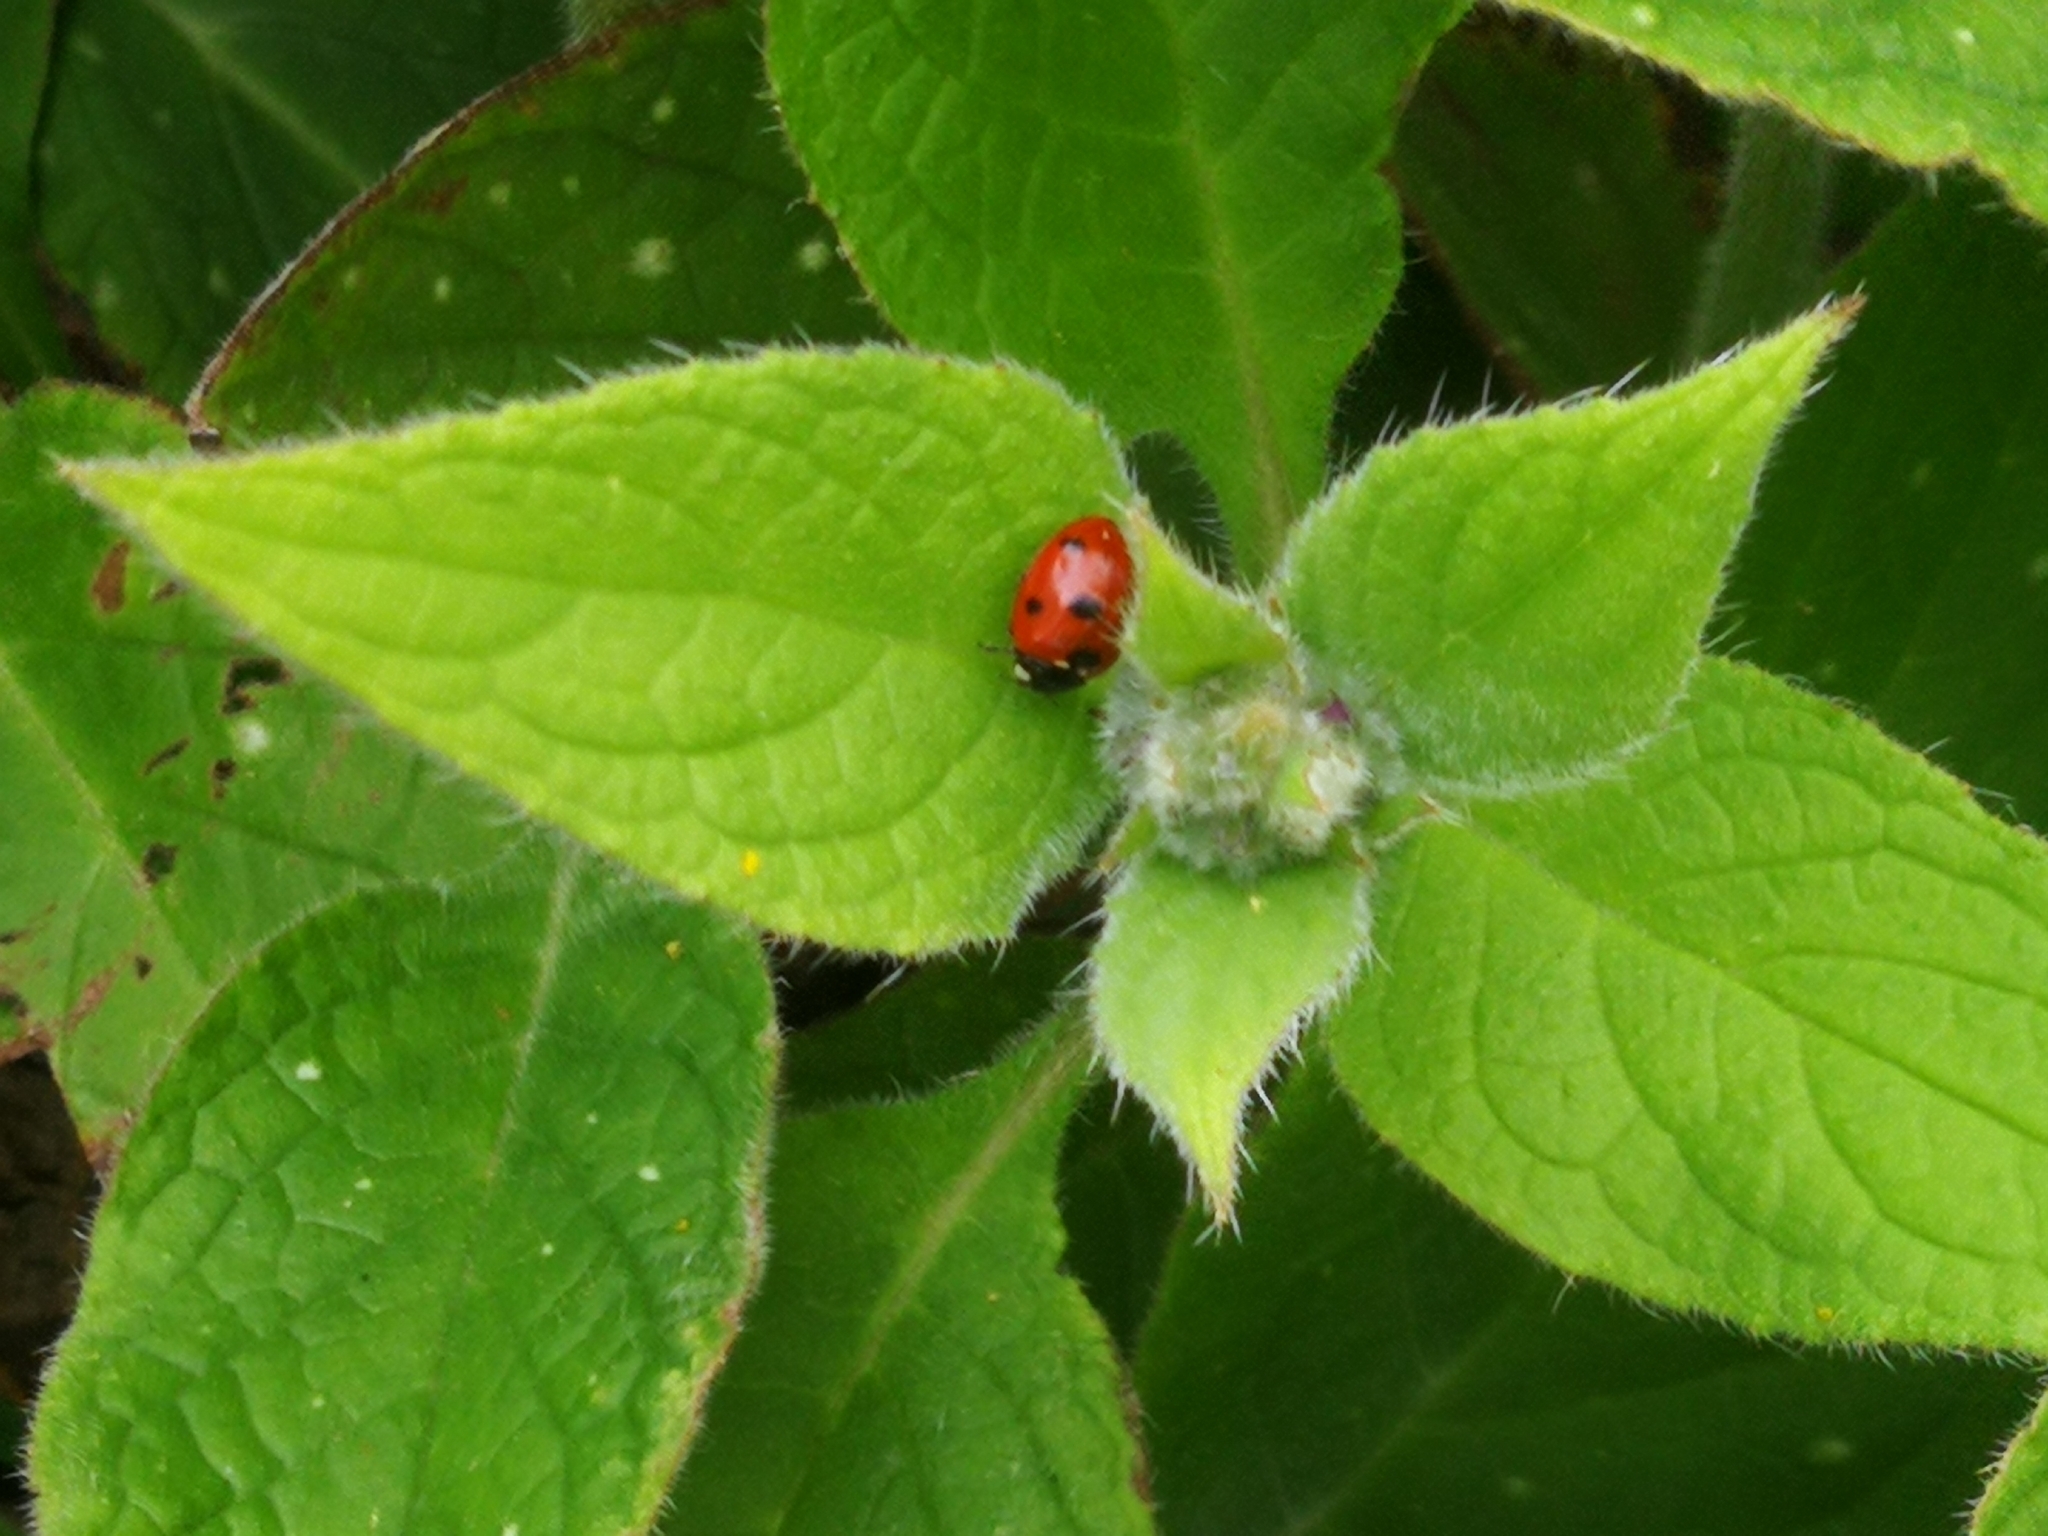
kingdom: Animalia
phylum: Arthropoda
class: Insecta
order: Coleoptera
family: Coccinellidae
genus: Coccinella
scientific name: Coccinella septempunctata
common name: Sevenspotted lady beetle
